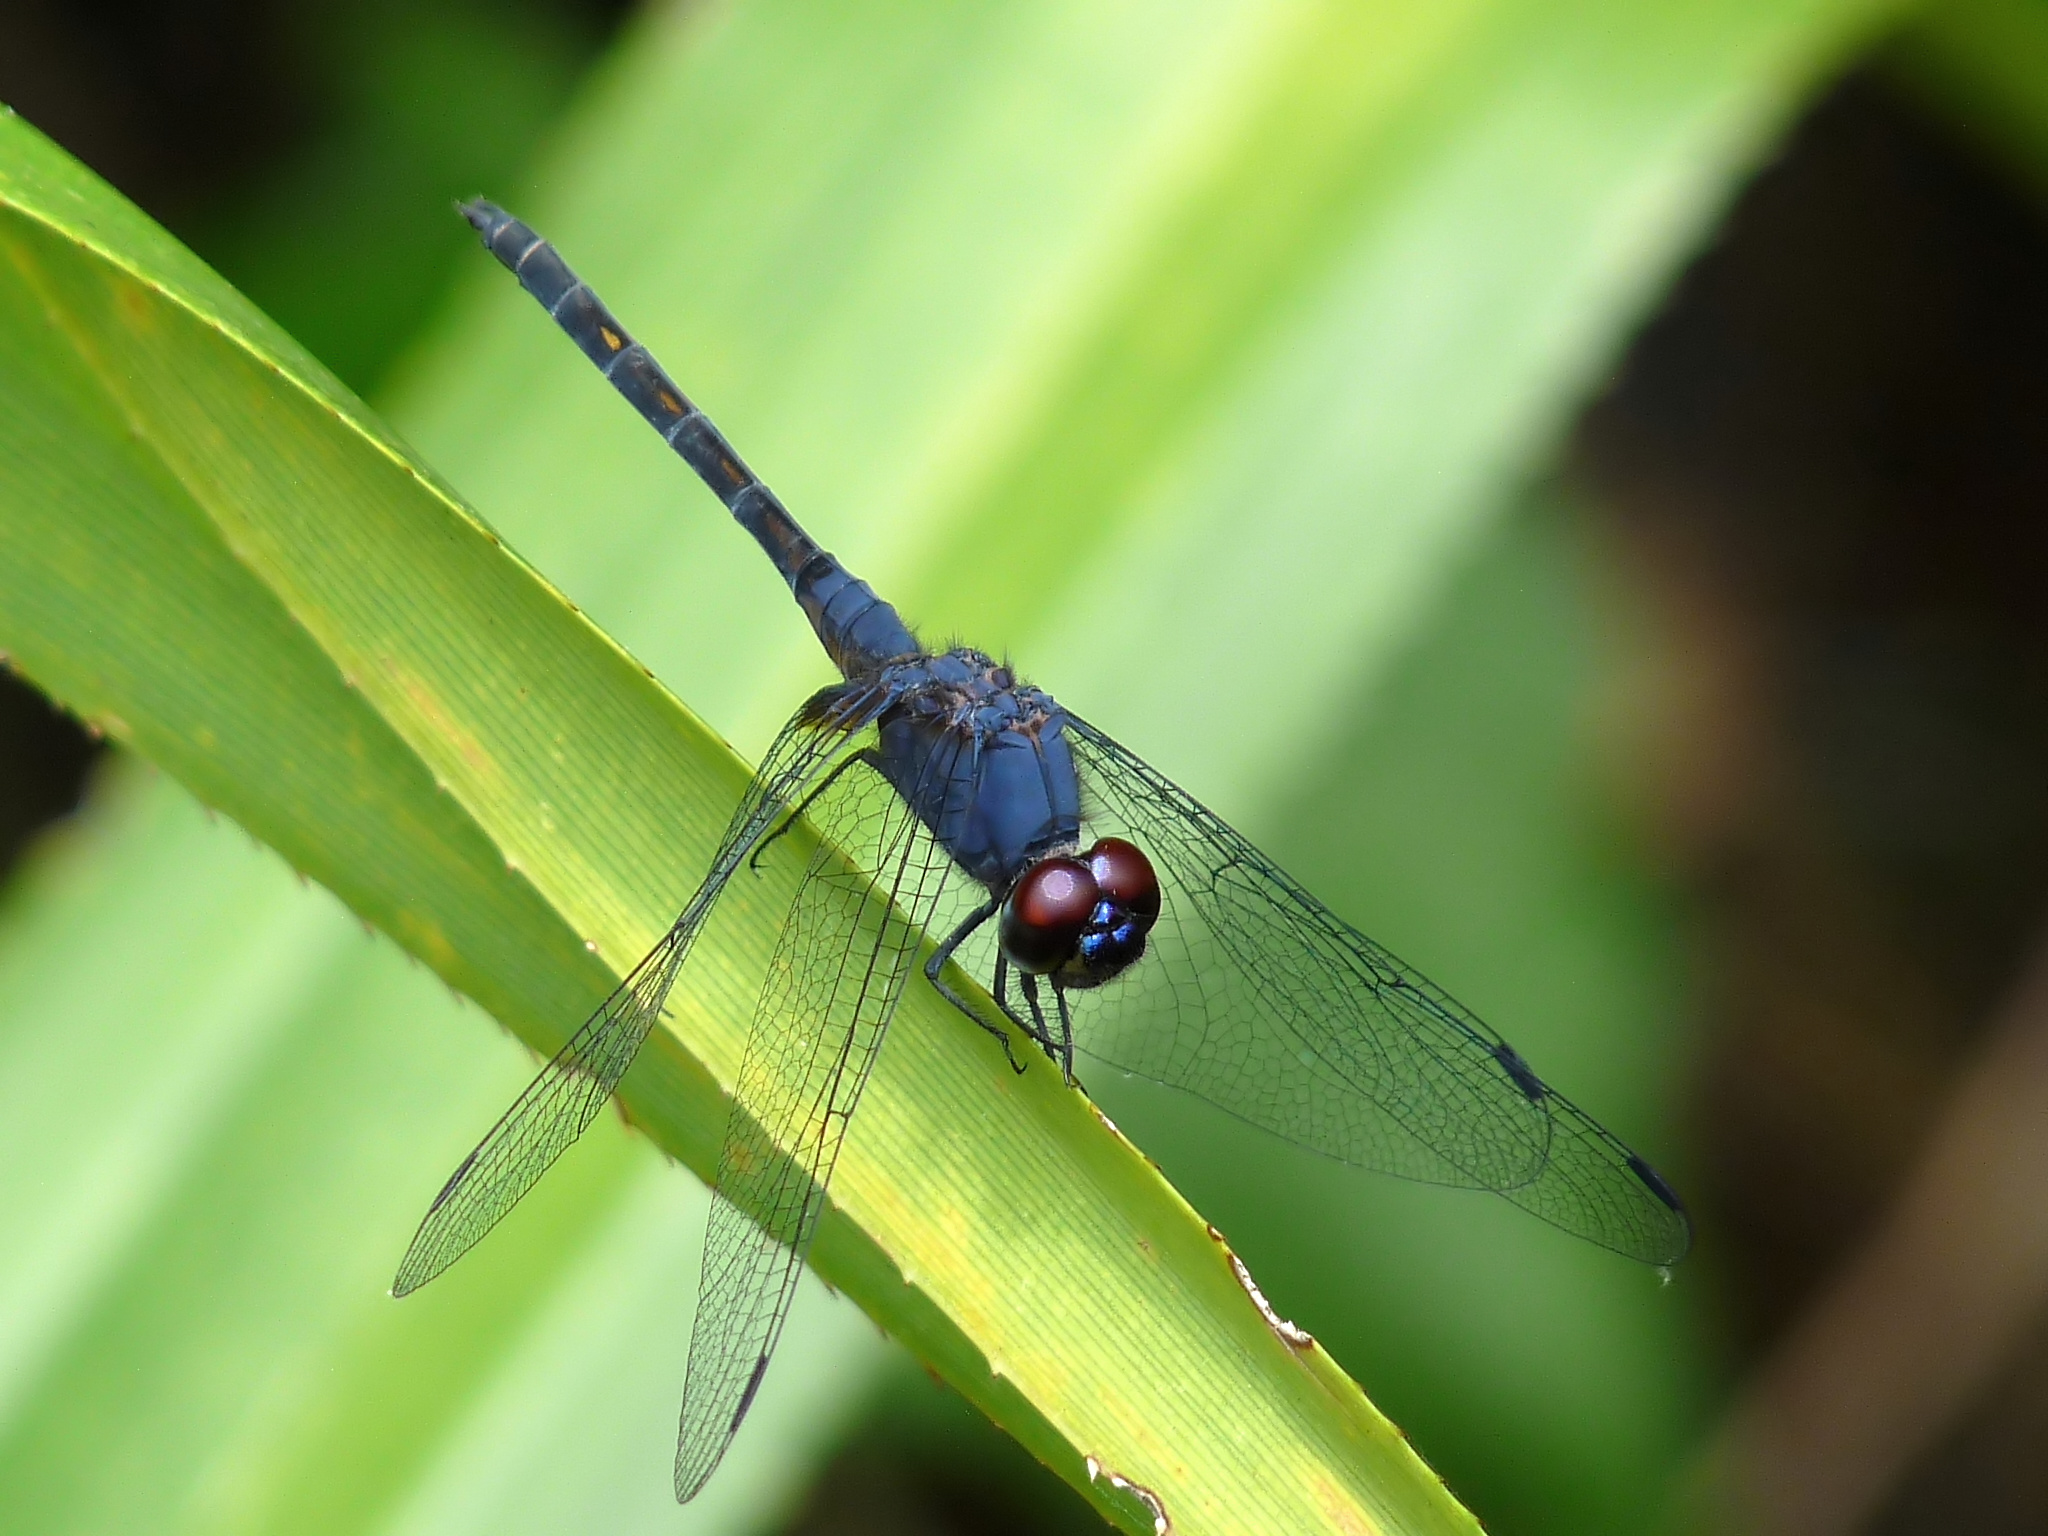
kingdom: Animalia
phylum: Arthropoda
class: Insecta
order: Odonata
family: Libellulidae
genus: Trithemis
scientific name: Trithemis festiva
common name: Indigo dropwing
